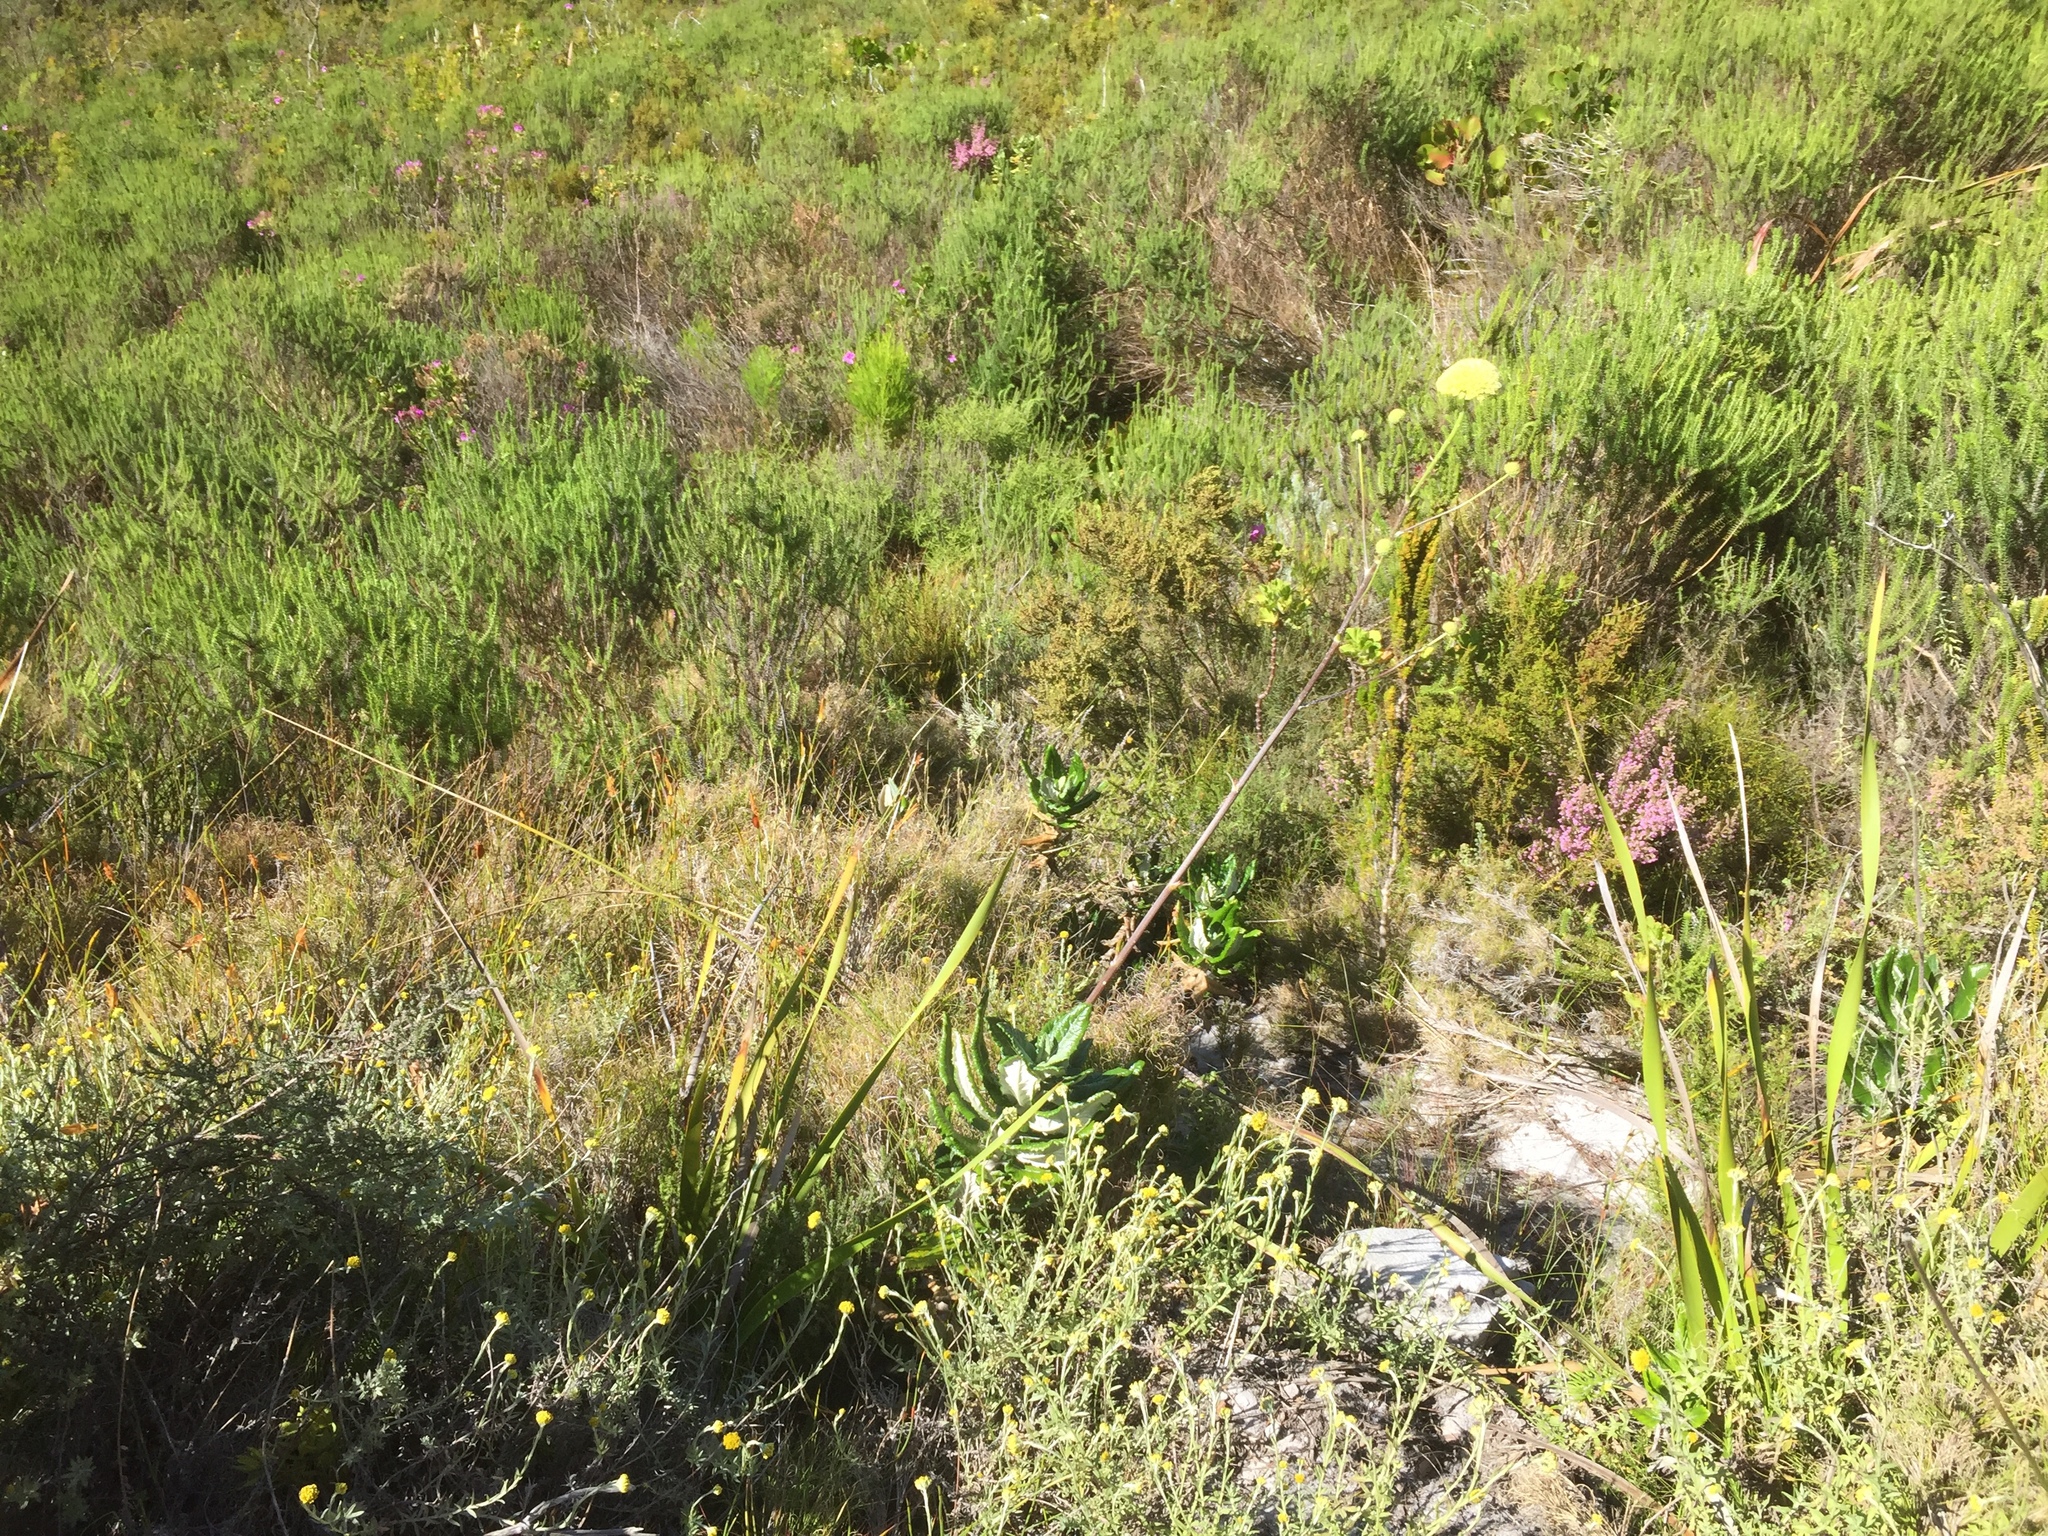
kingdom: Plantae
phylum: Tracheophyta
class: Magnoliopsida
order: Apiales
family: Apiaceae
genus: Hermas
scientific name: Hermas villosa
